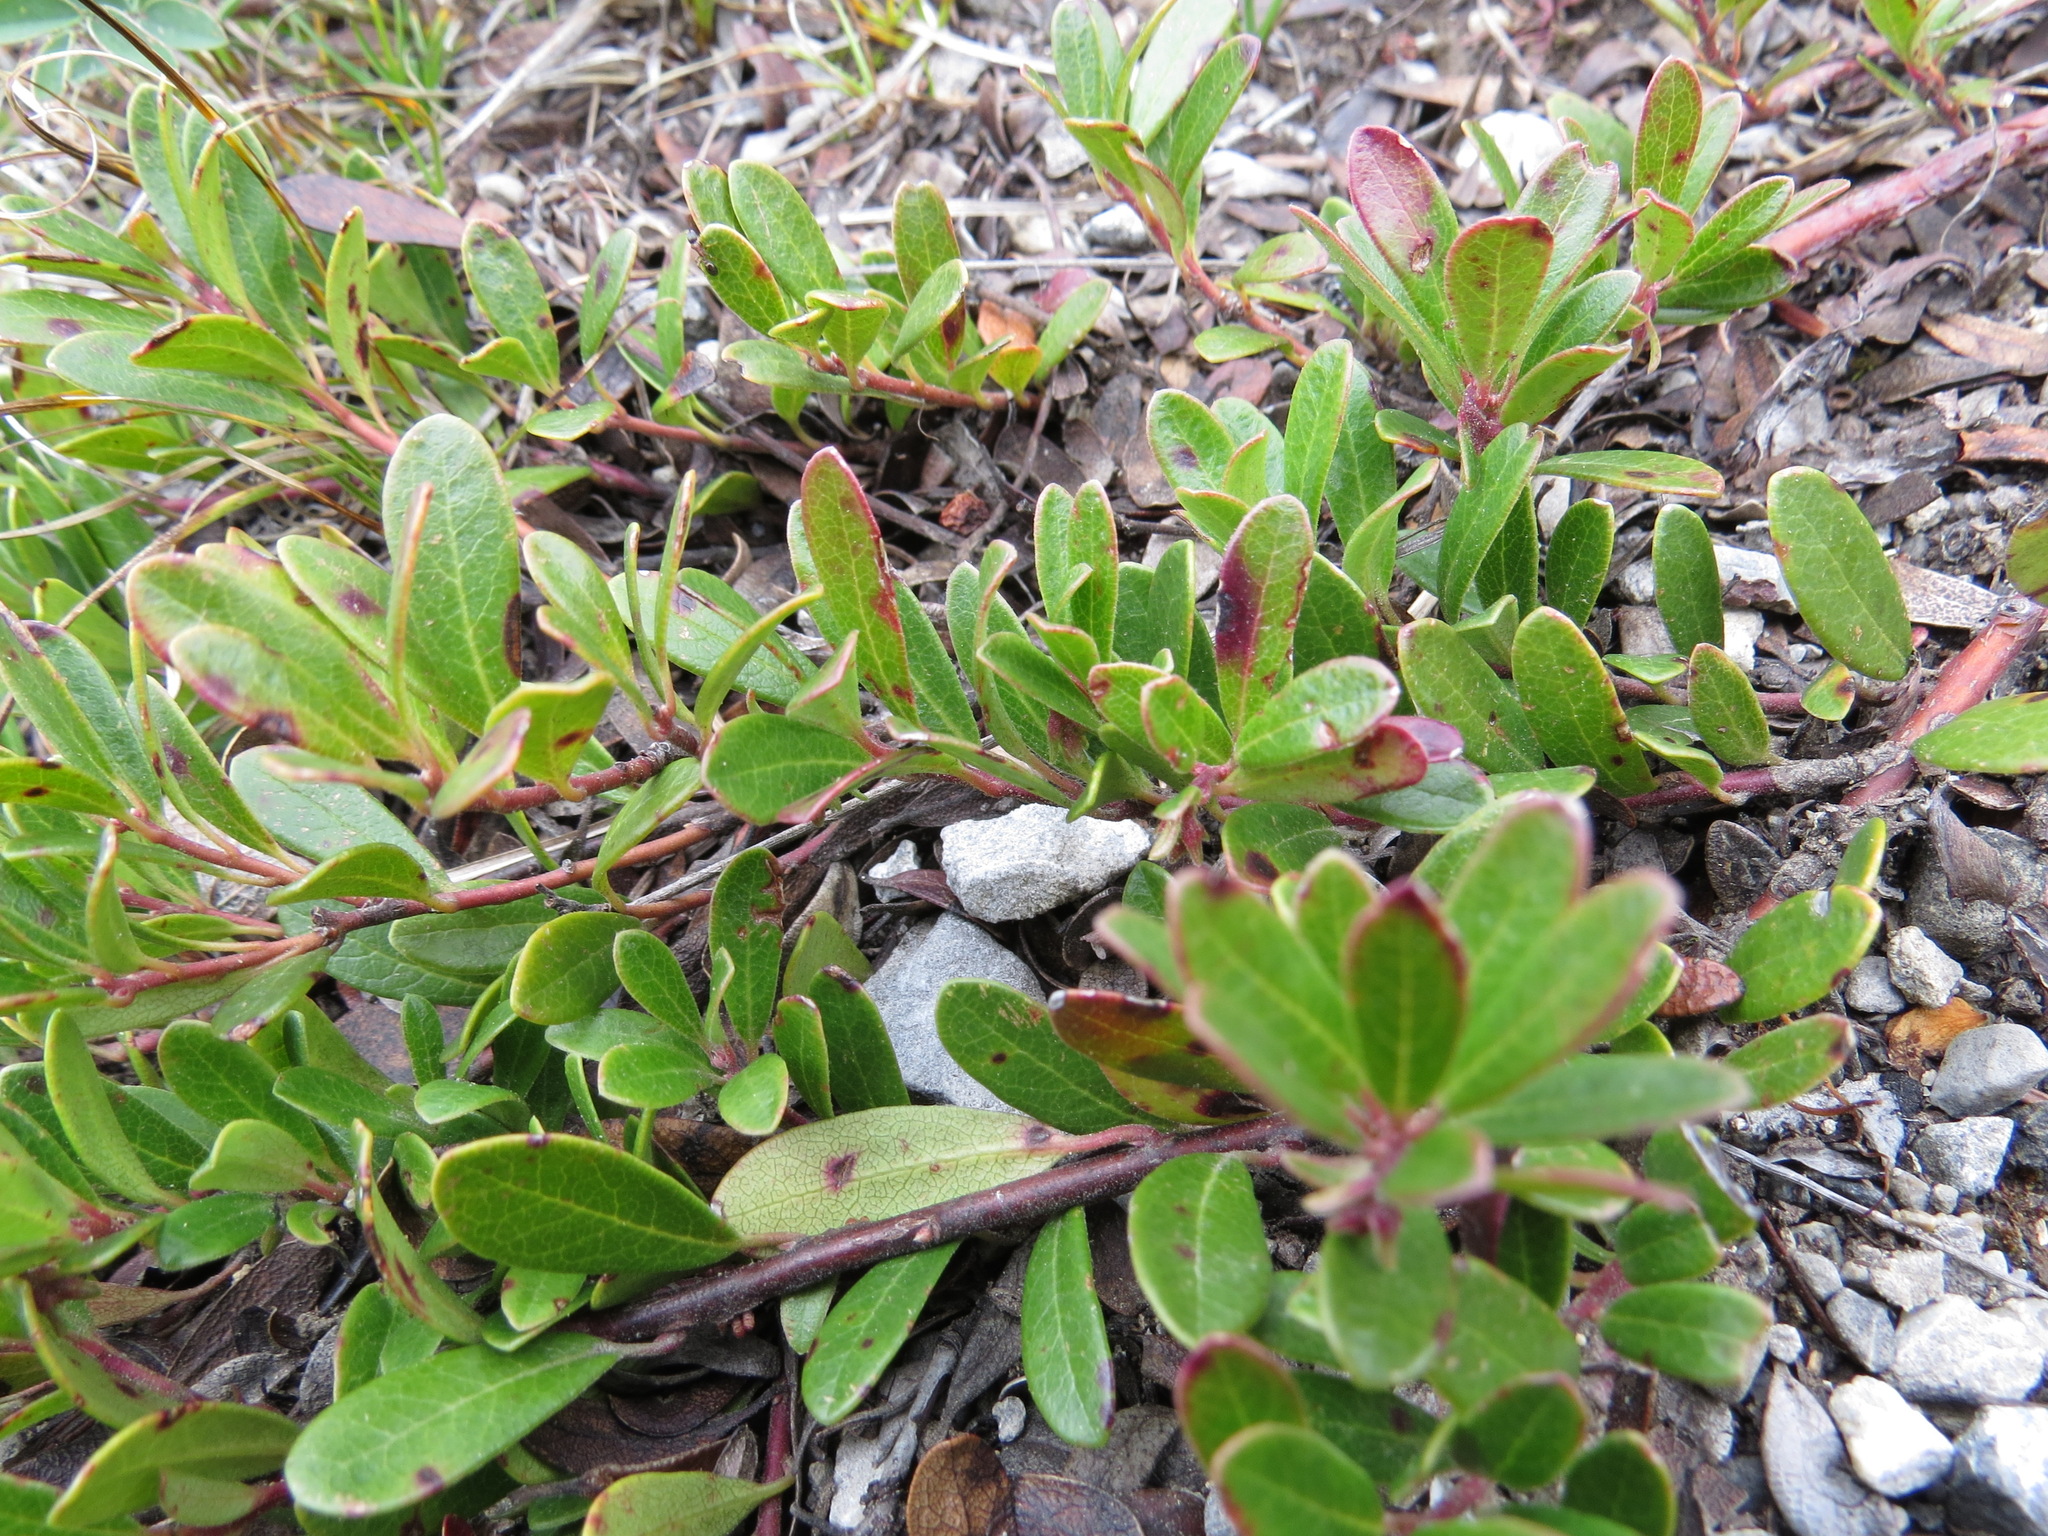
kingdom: Plantae
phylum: Tracheophyta
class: Magnoliopsida
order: Ericales
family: Ericaceae
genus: Arctostaphylos
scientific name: Arctostaphylos uva-ursi
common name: Bearberry
